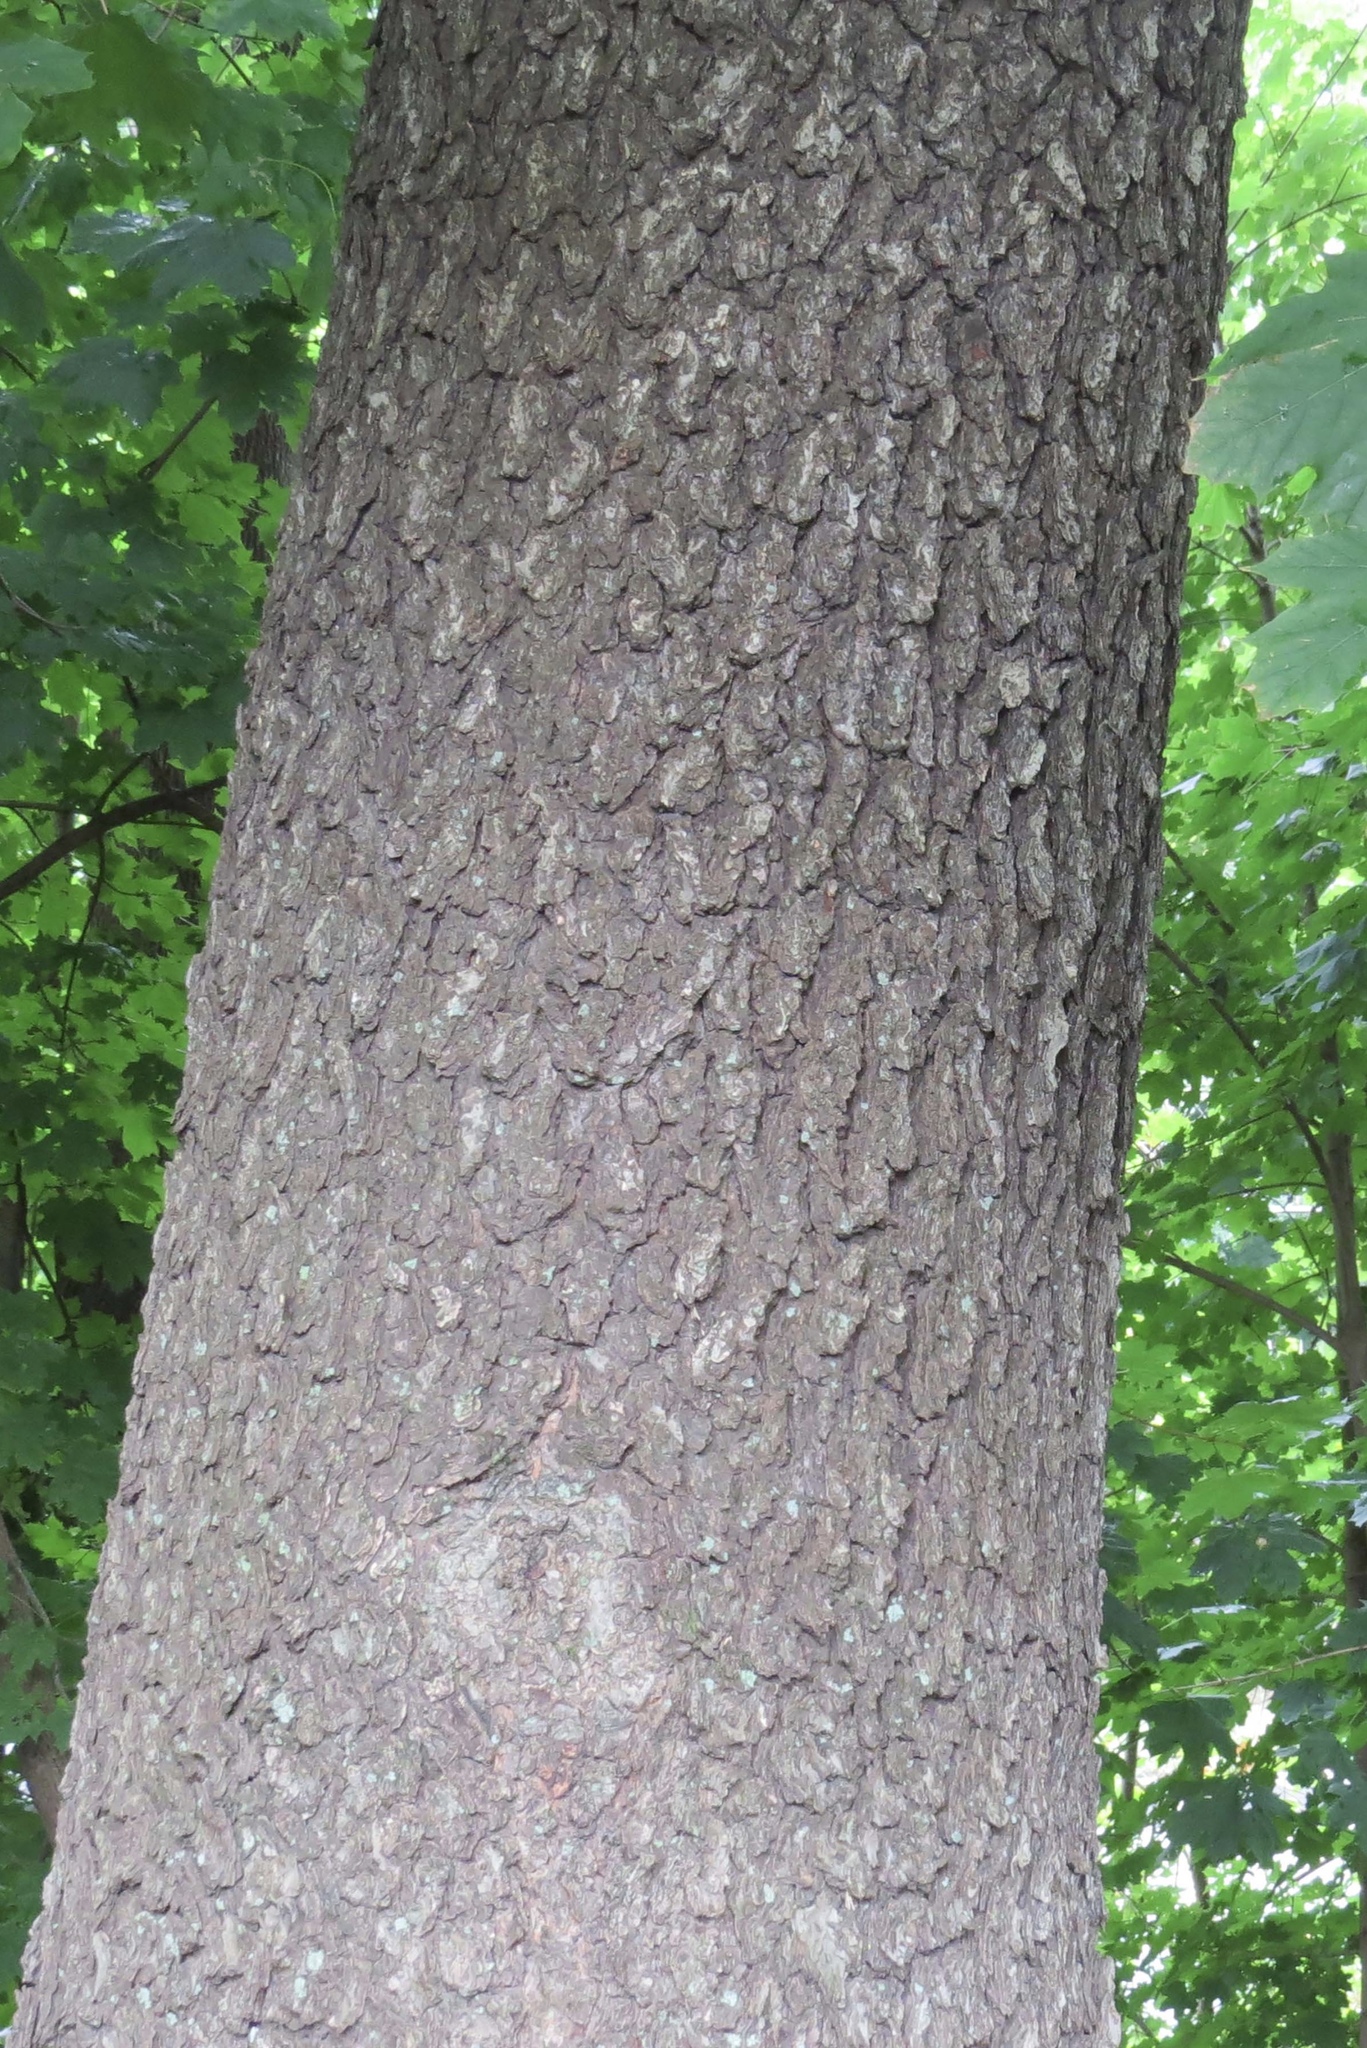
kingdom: Plantae
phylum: Tracheophyta
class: Magnoliopsida
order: Rosales
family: Rosaceae
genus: Prunus
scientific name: Prunus serotina
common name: Black cherry
